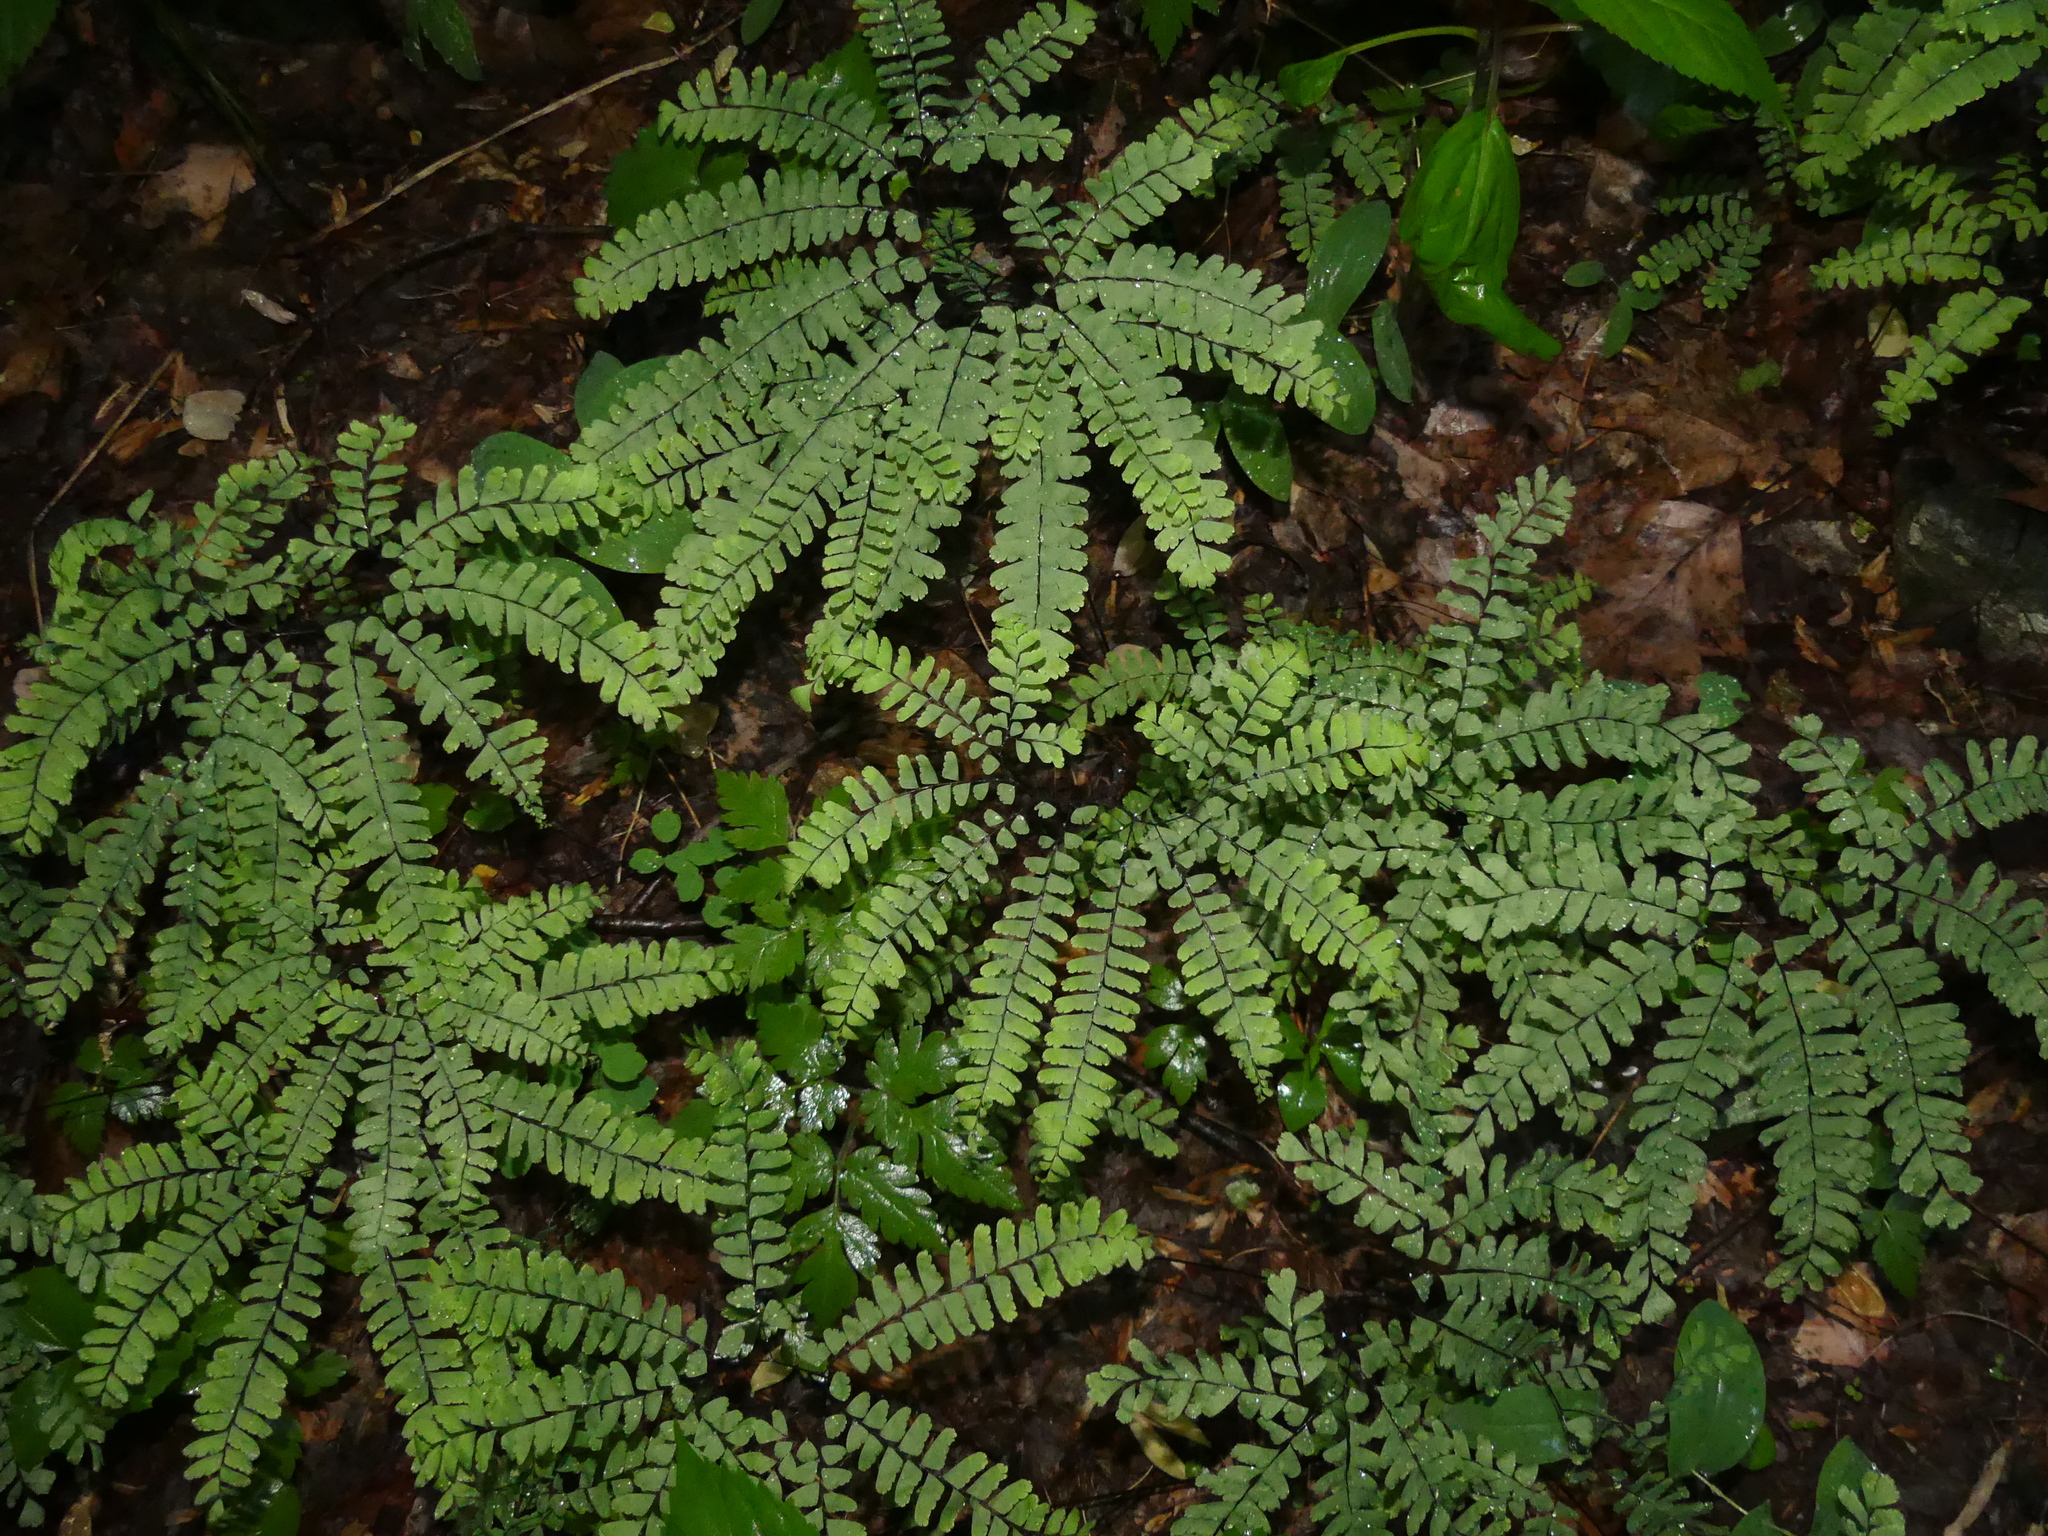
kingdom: Plantae
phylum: Tracheophyta
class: Polypodiopsida
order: Polypodiales
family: Pteridaceae
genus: Adiantum
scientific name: Adiantum pedatum
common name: Five-finger fern
